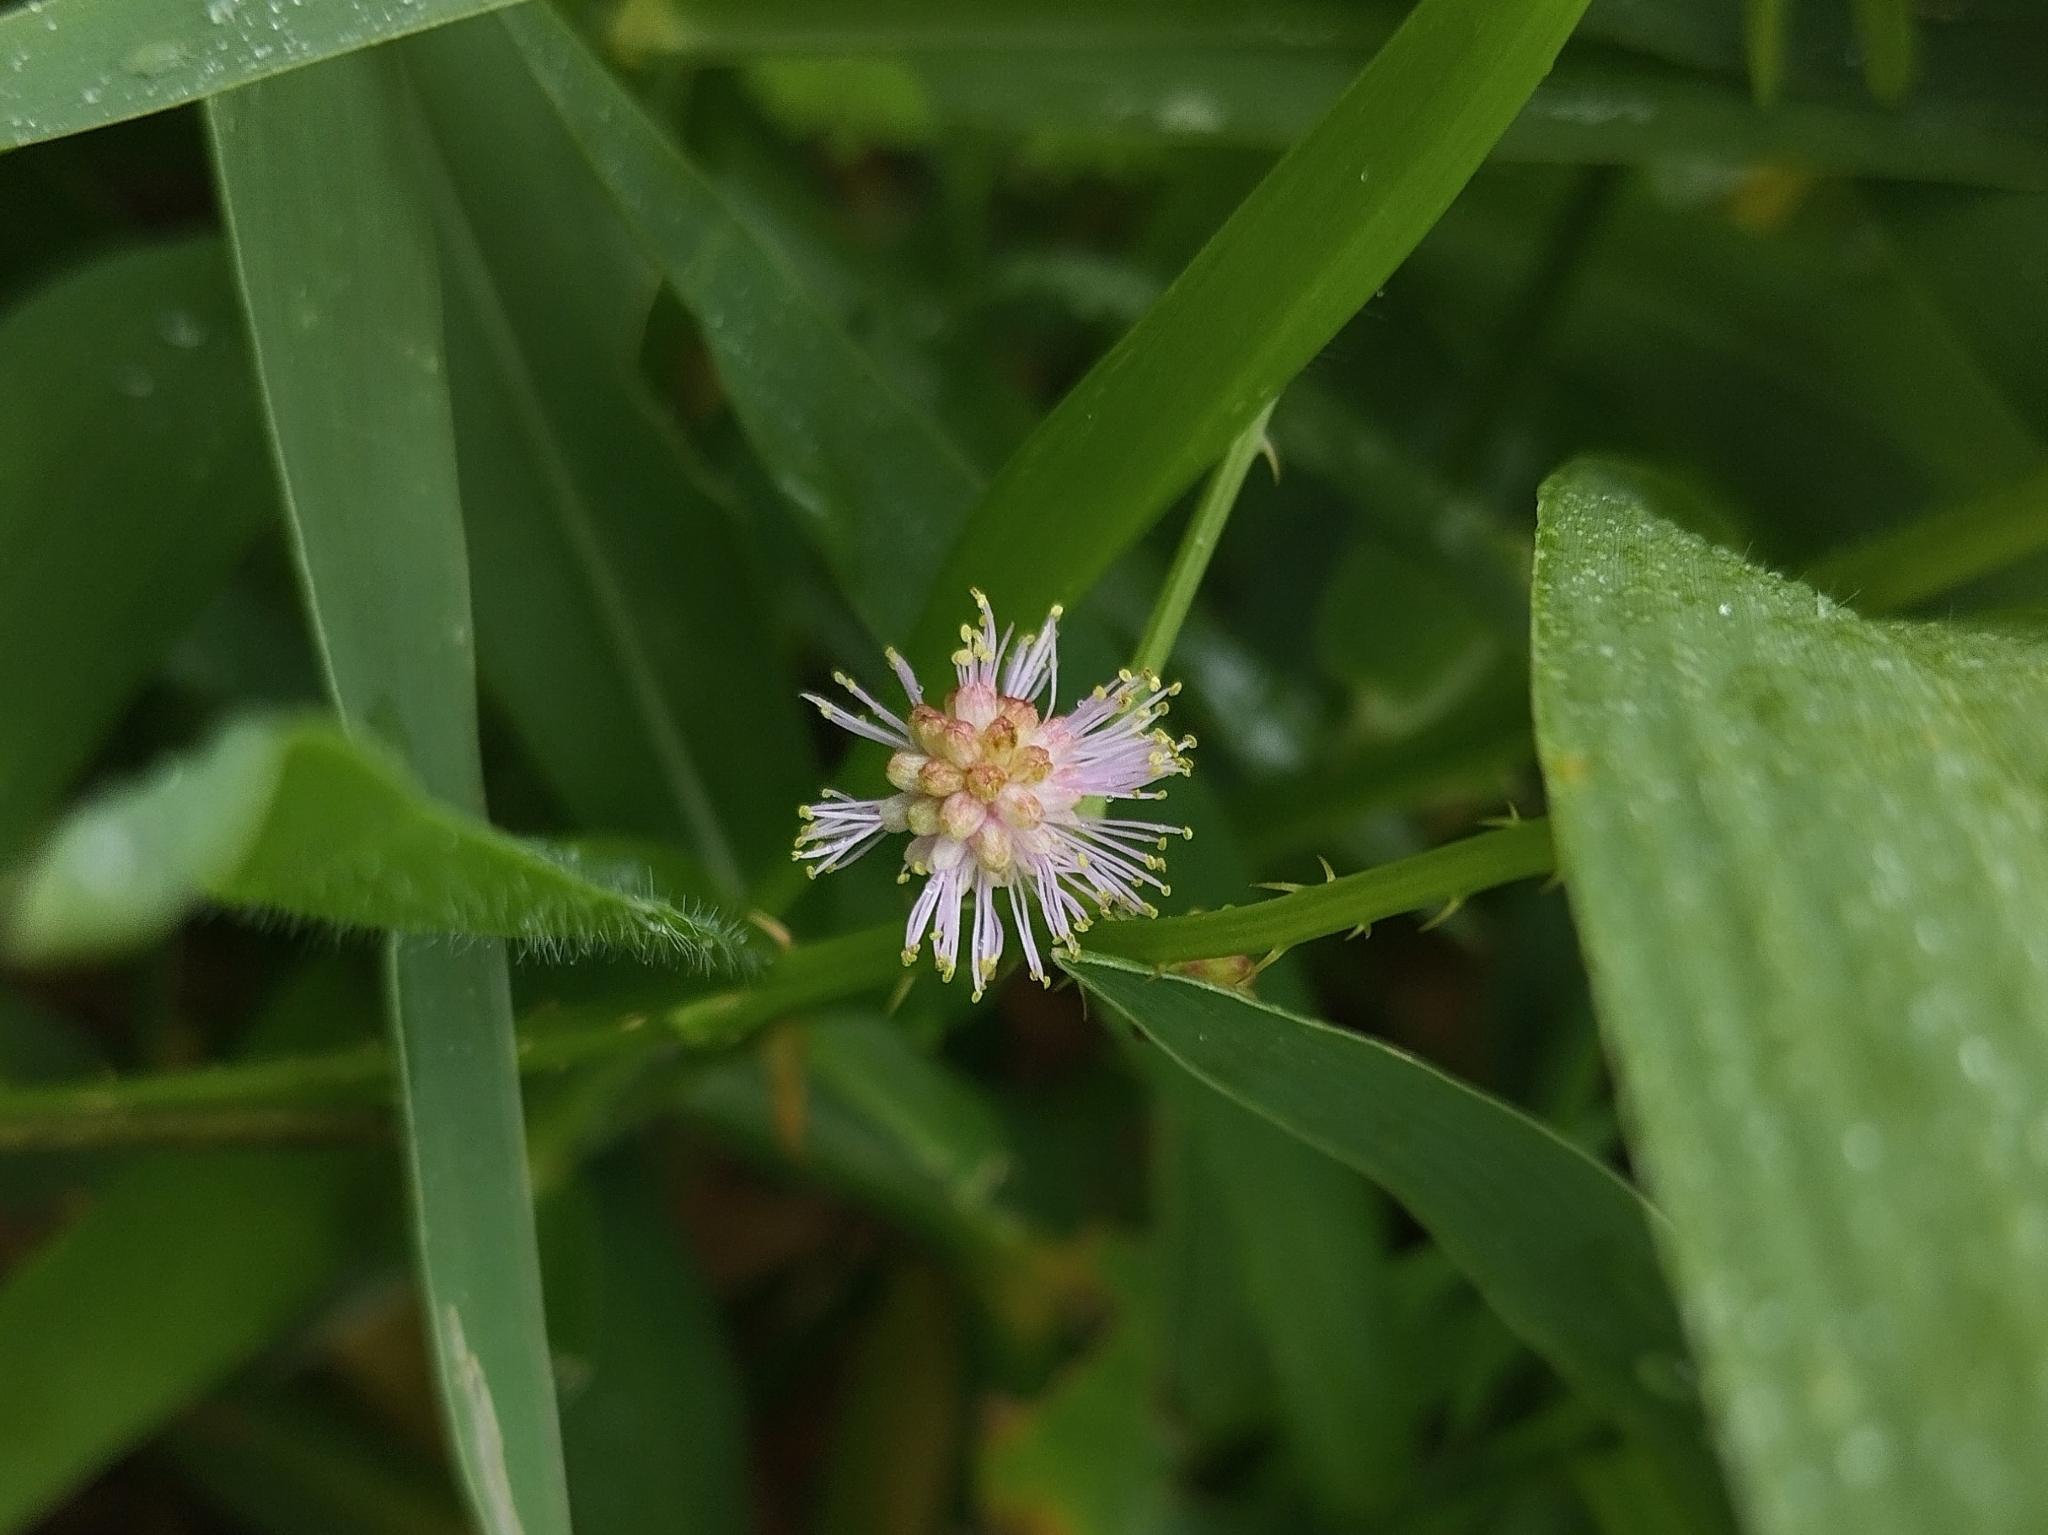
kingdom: Plantae
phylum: Tracheophyta
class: Magnoliopsida
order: Fabales
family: Fabaceae
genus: Mimosa
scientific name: Mimosa pudica
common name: Sensitive plant
